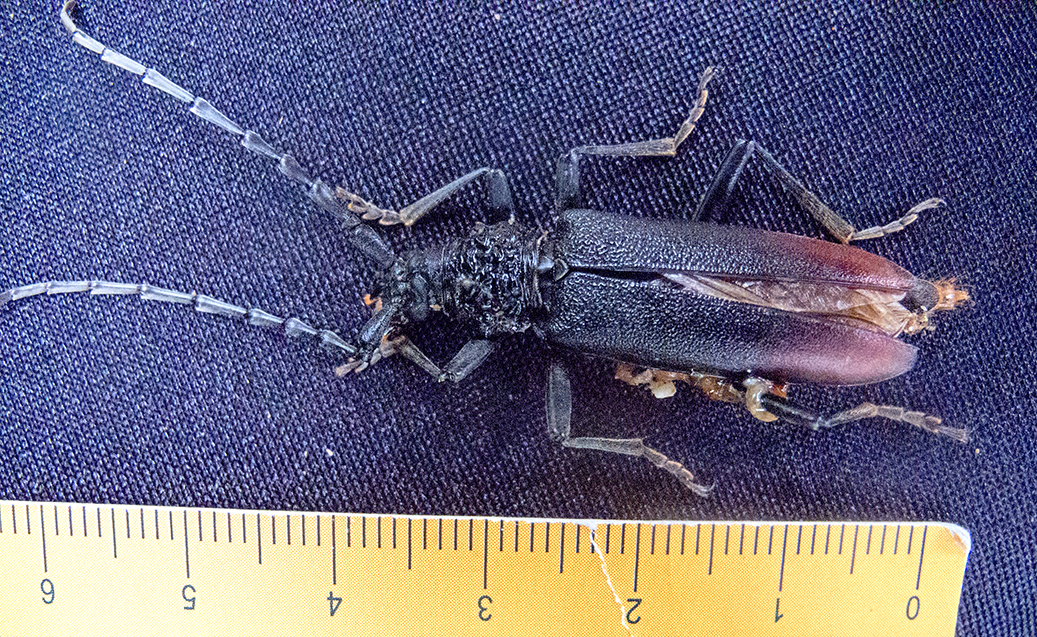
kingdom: Animalia
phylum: Arthropoda
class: Insecta
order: Coleoptera
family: Cerambycidae
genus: Cerambyx
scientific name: Cerambyx cerdo
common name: Cerambyx longicorn
